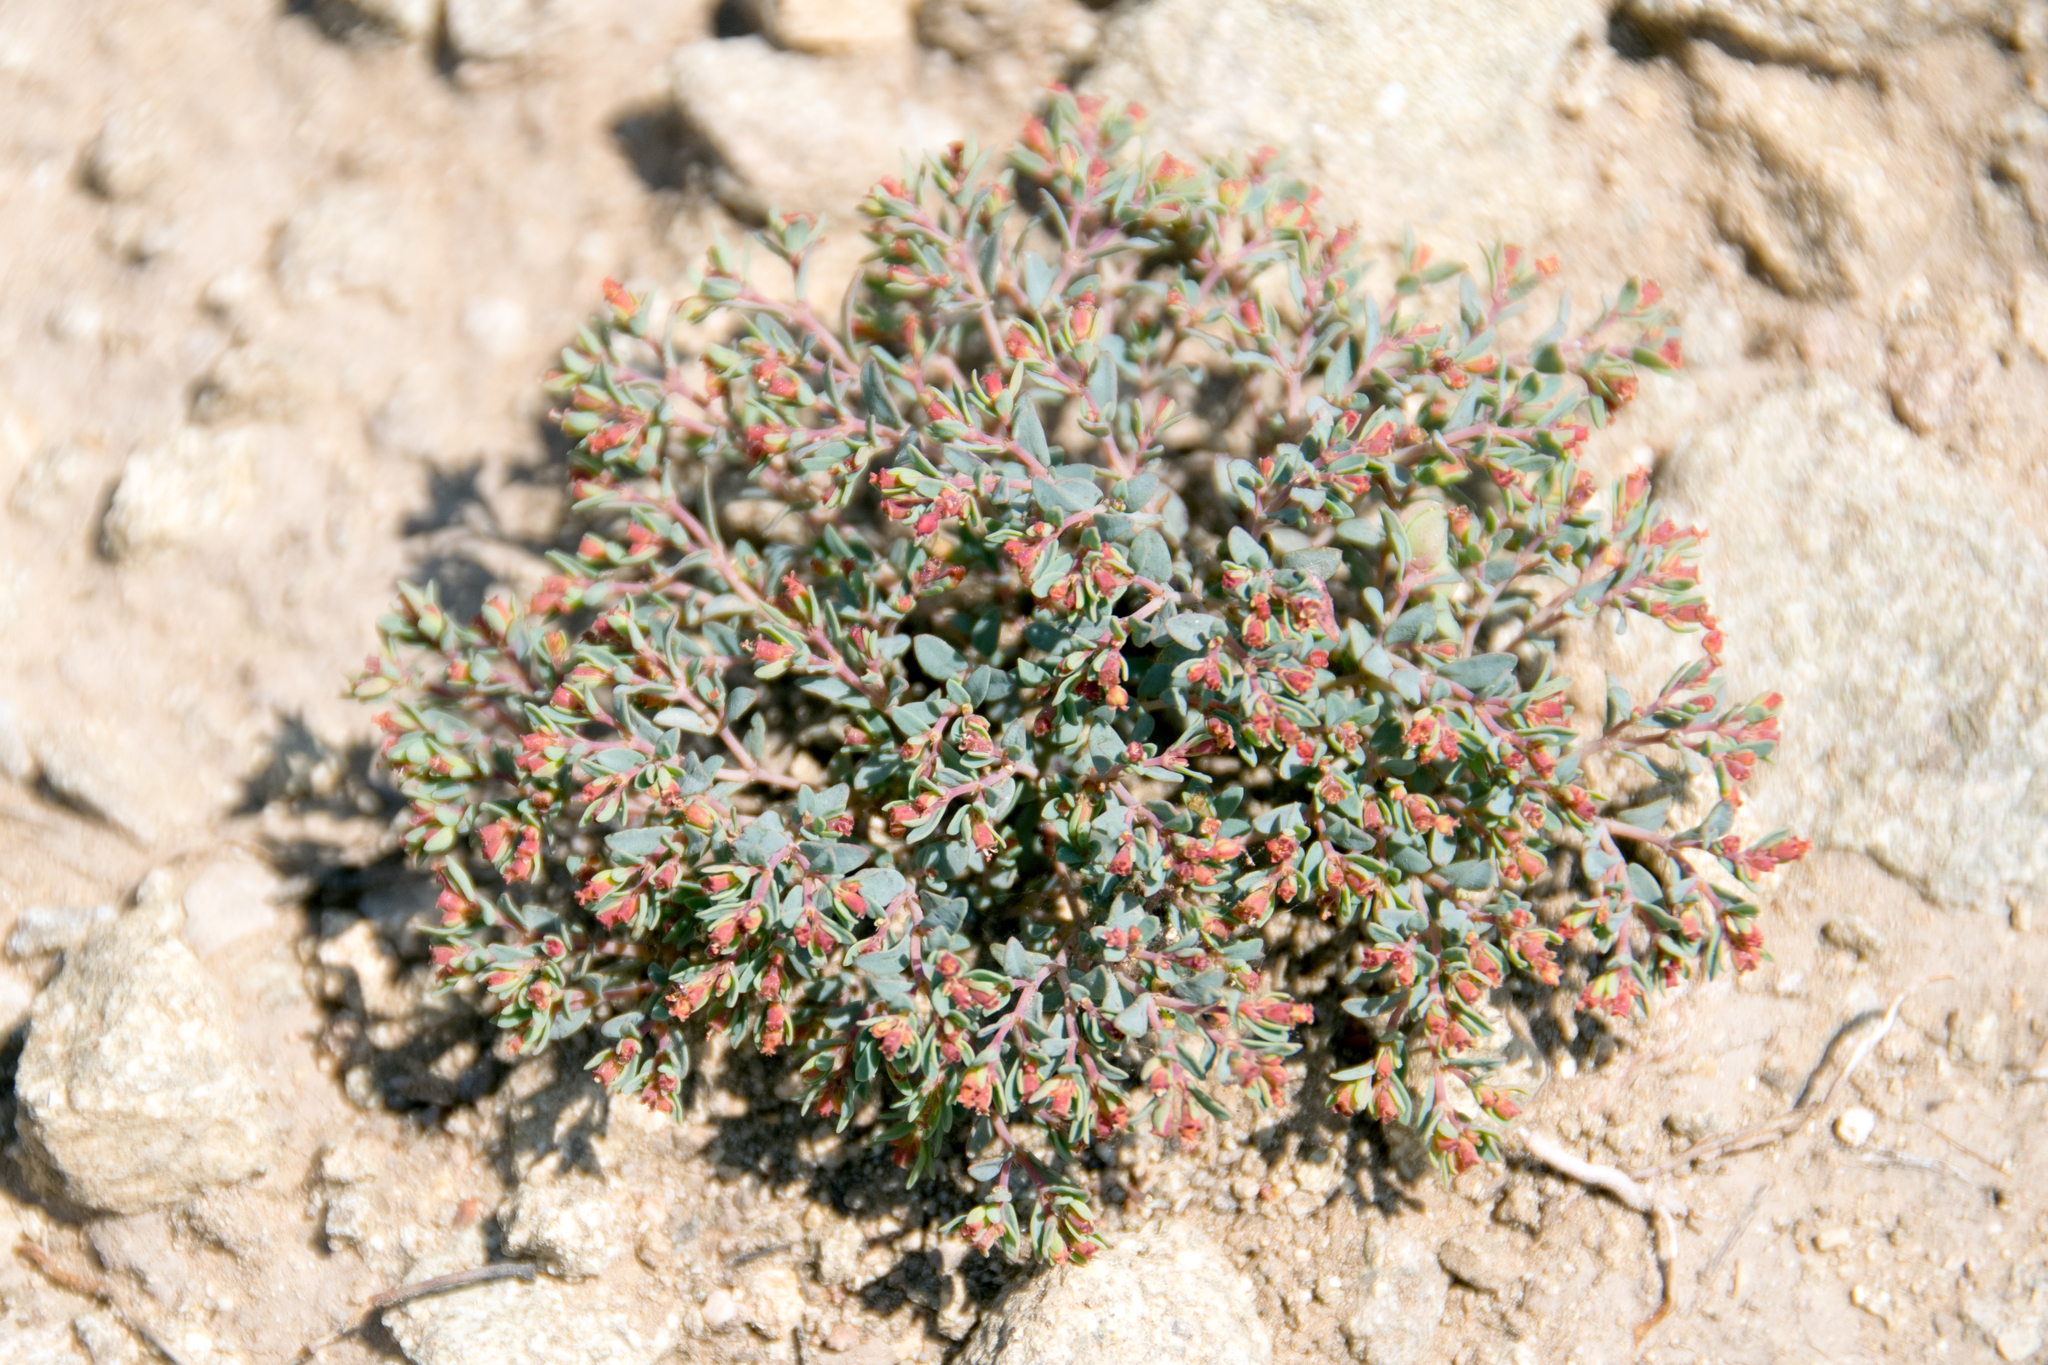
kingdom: Plantae
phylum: Tracheophyta
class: Magnoliopsida
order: Malpighiales
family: Euphorbiaceae
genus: Euphorbia
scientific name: Euphorbia fendleri
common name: Fendler's euphorbia
